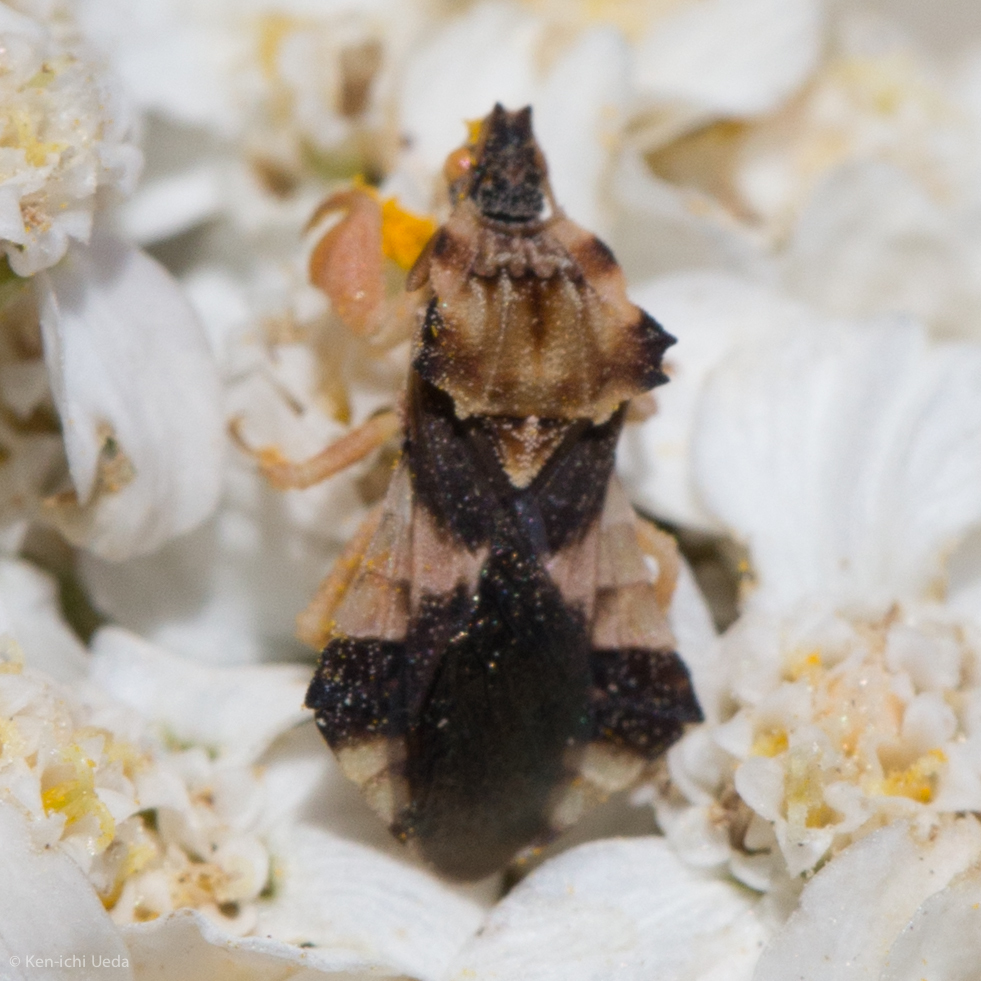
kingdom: Animalia
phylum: Arthropoda
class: Insecta
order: Hemiptera
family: Reduviidae
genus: Phymata
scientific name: Phymata pacifica
